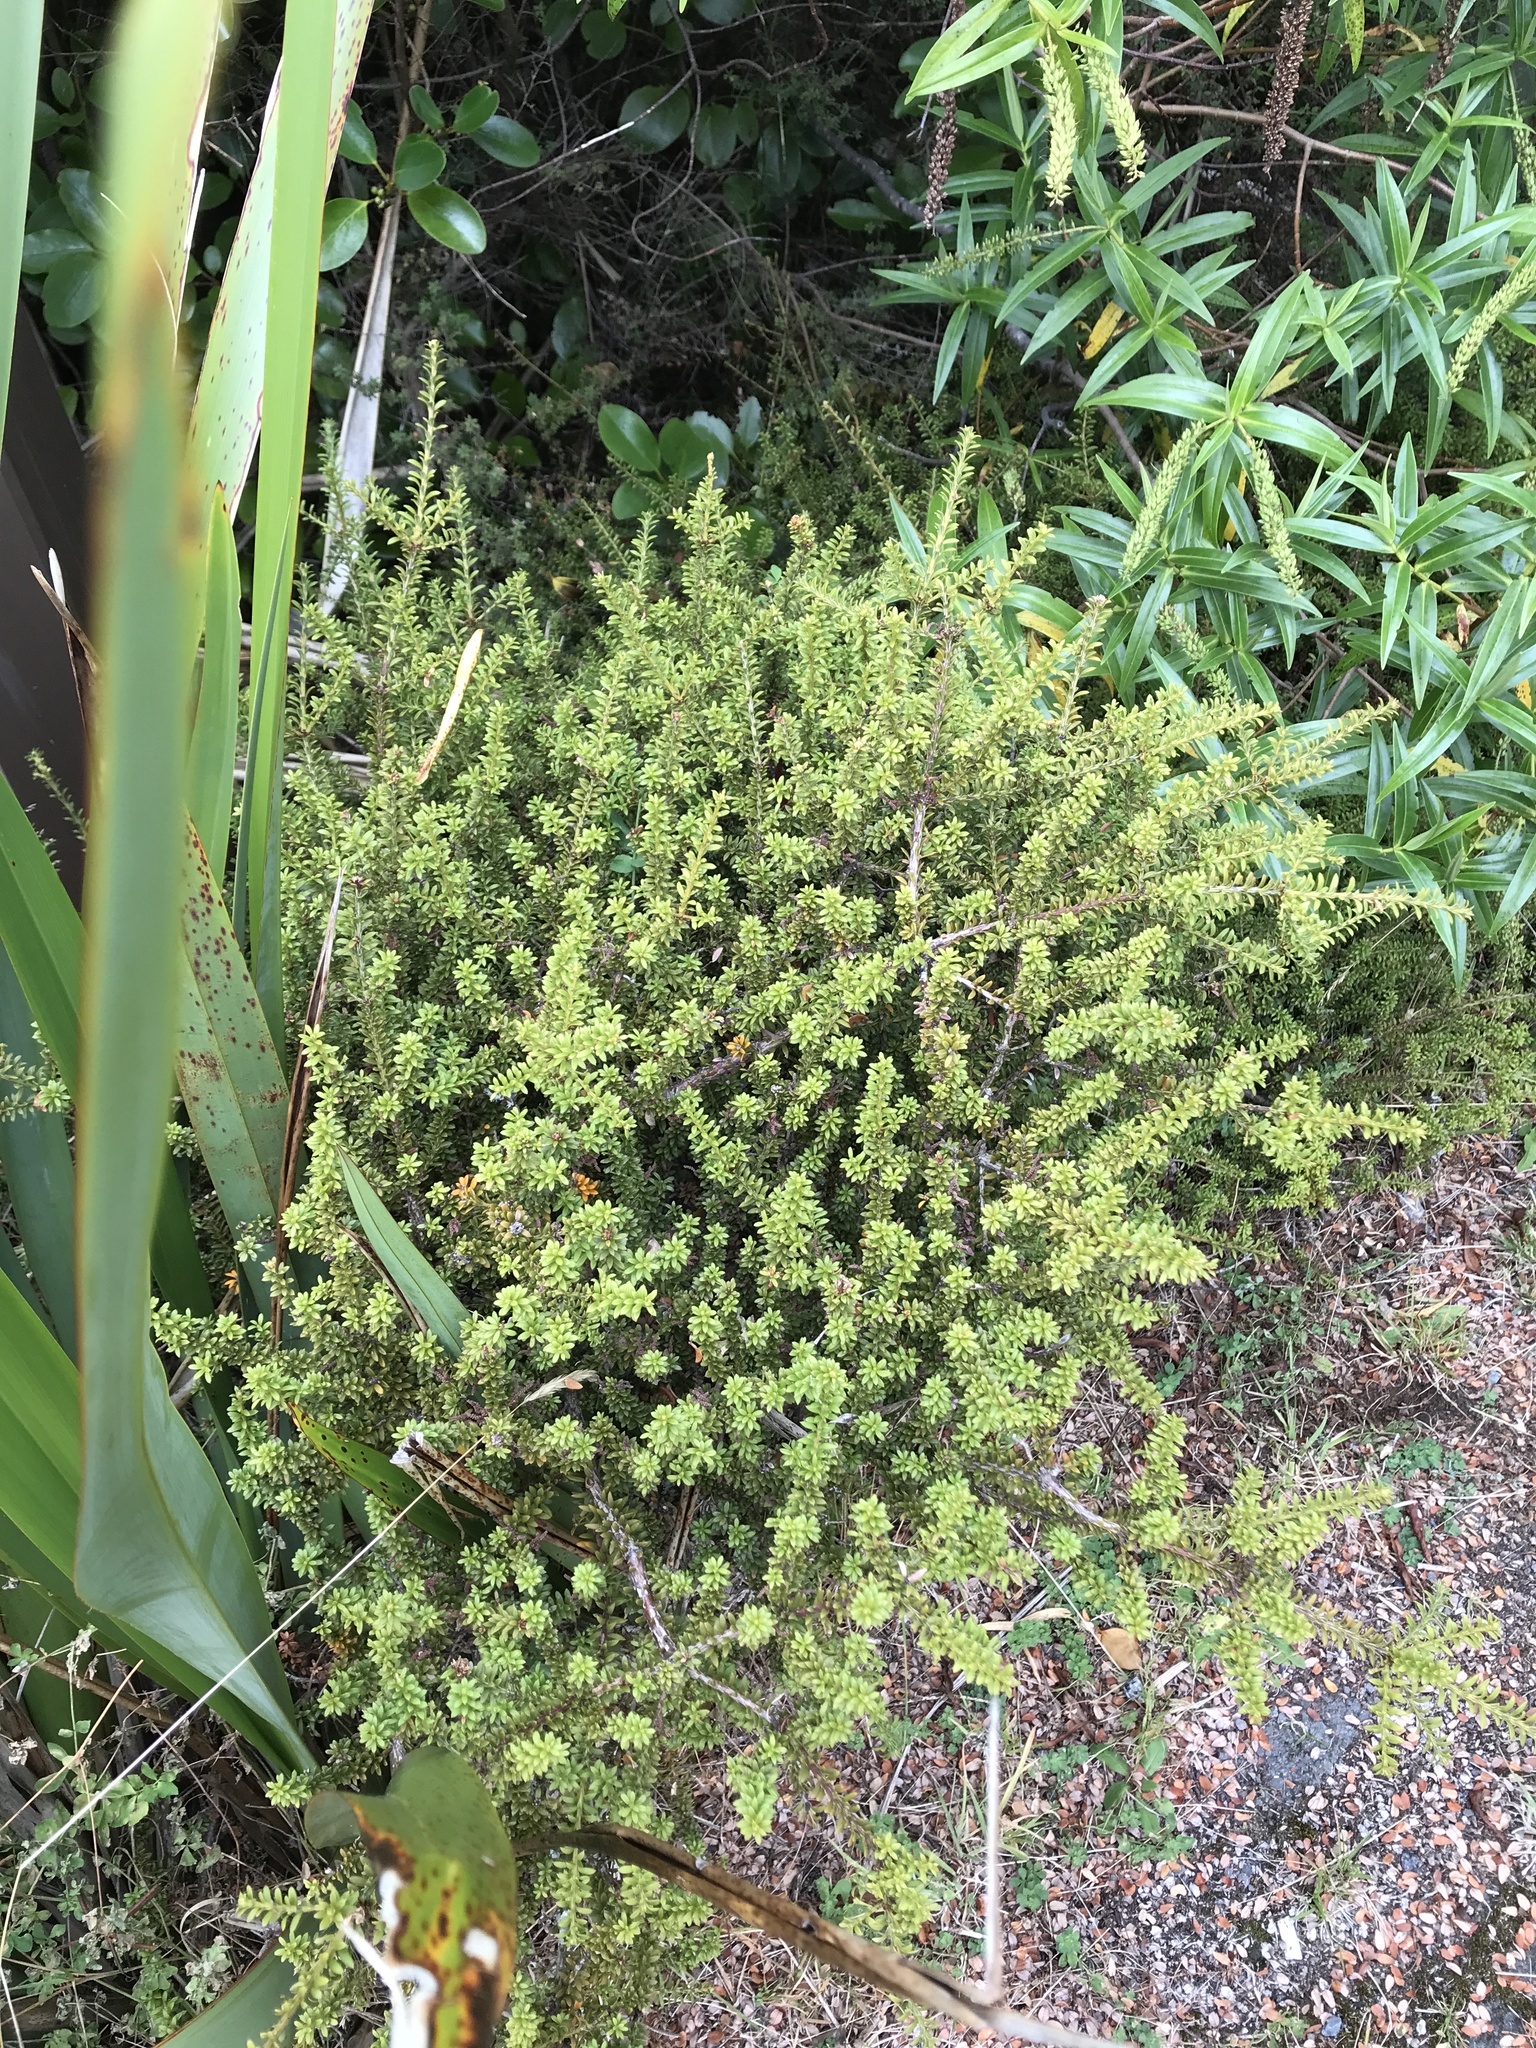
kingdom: Plantae
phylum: Tracheophyta
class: Pinopsida
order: Pinales
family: Podocarpaceae
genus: Podocarpus
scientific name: Podocarpus nivalis
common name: Alpine totara
